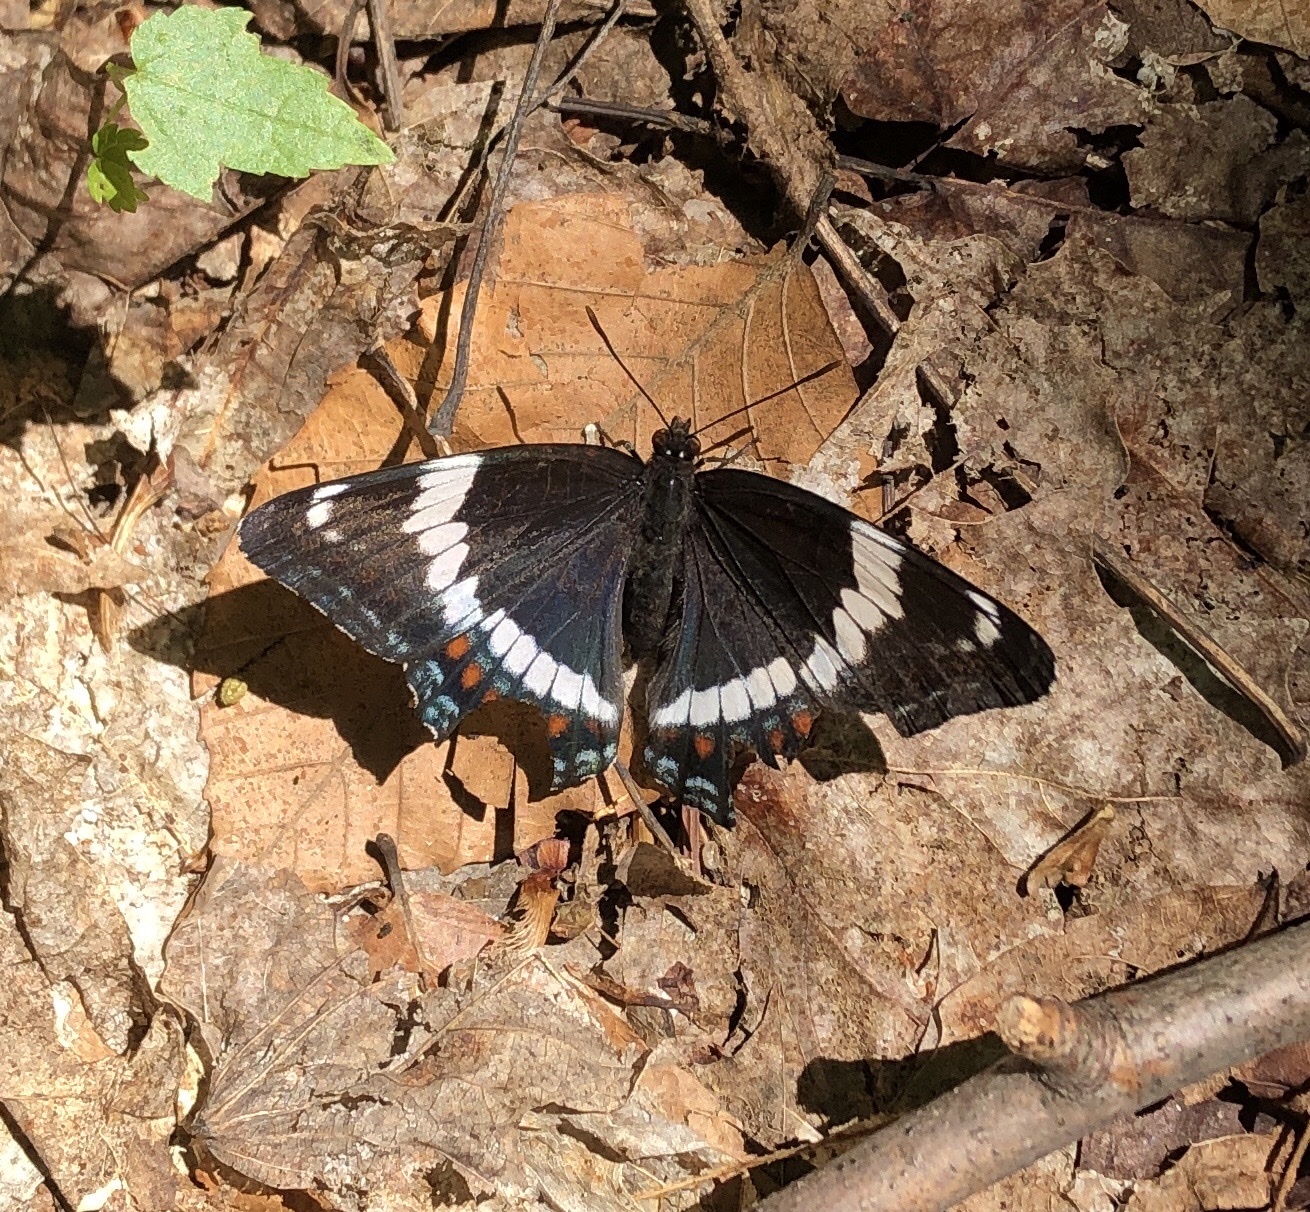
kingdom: Animalia
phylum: Arthropoda
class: Insecta
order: Lepidoptera
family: Nymphalidae
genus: Limenitis
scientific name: Limenitis arthemis
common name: Red-spotted admiral
